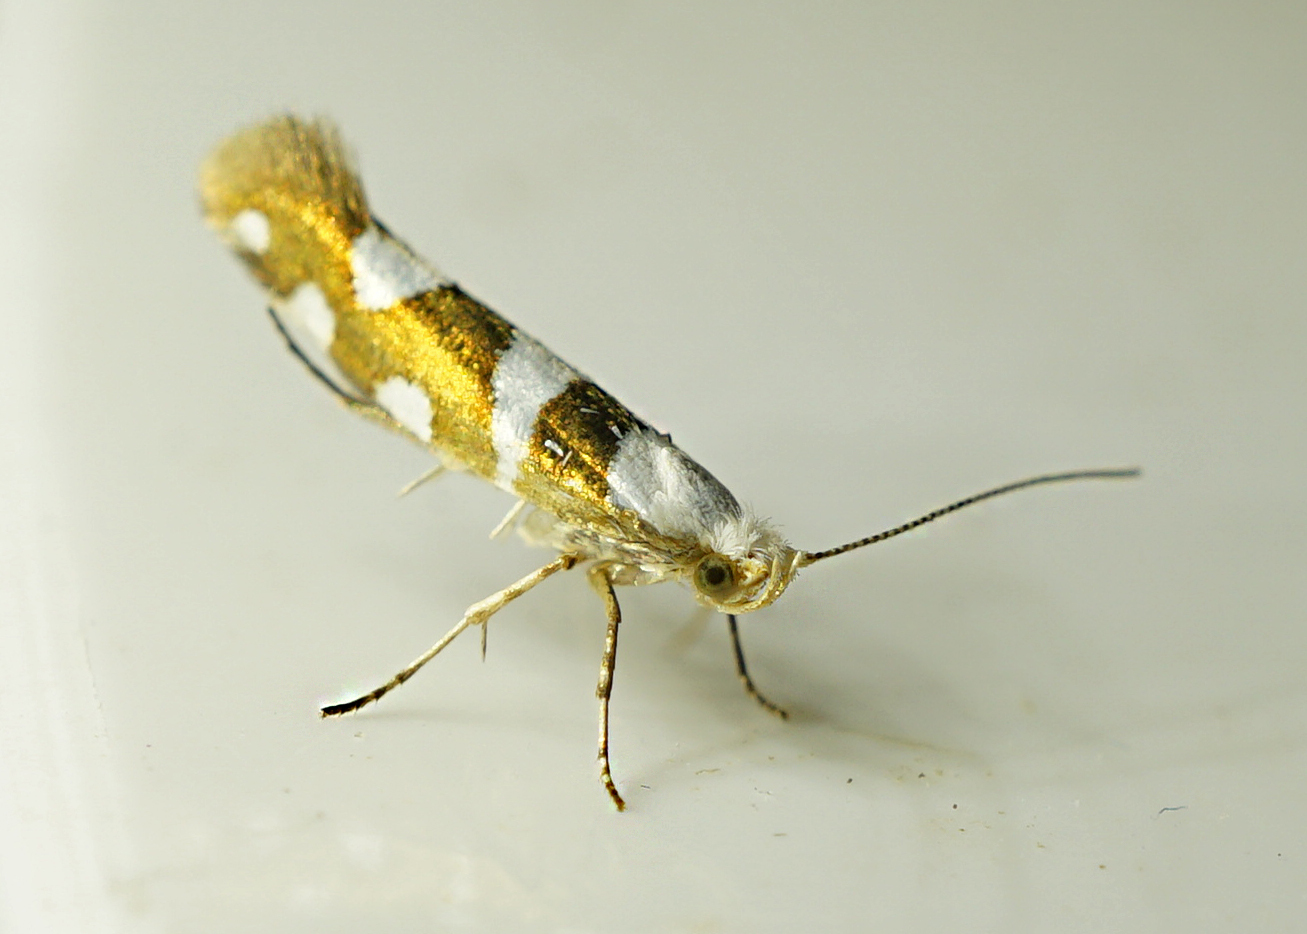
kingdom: Animalia
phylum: Arthropoda
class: Insecta
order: Lepidoptera
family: Argyresthiidae
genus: Argyresthia
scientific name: Argyresthia brockeella
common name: Gold-ribbon argent
